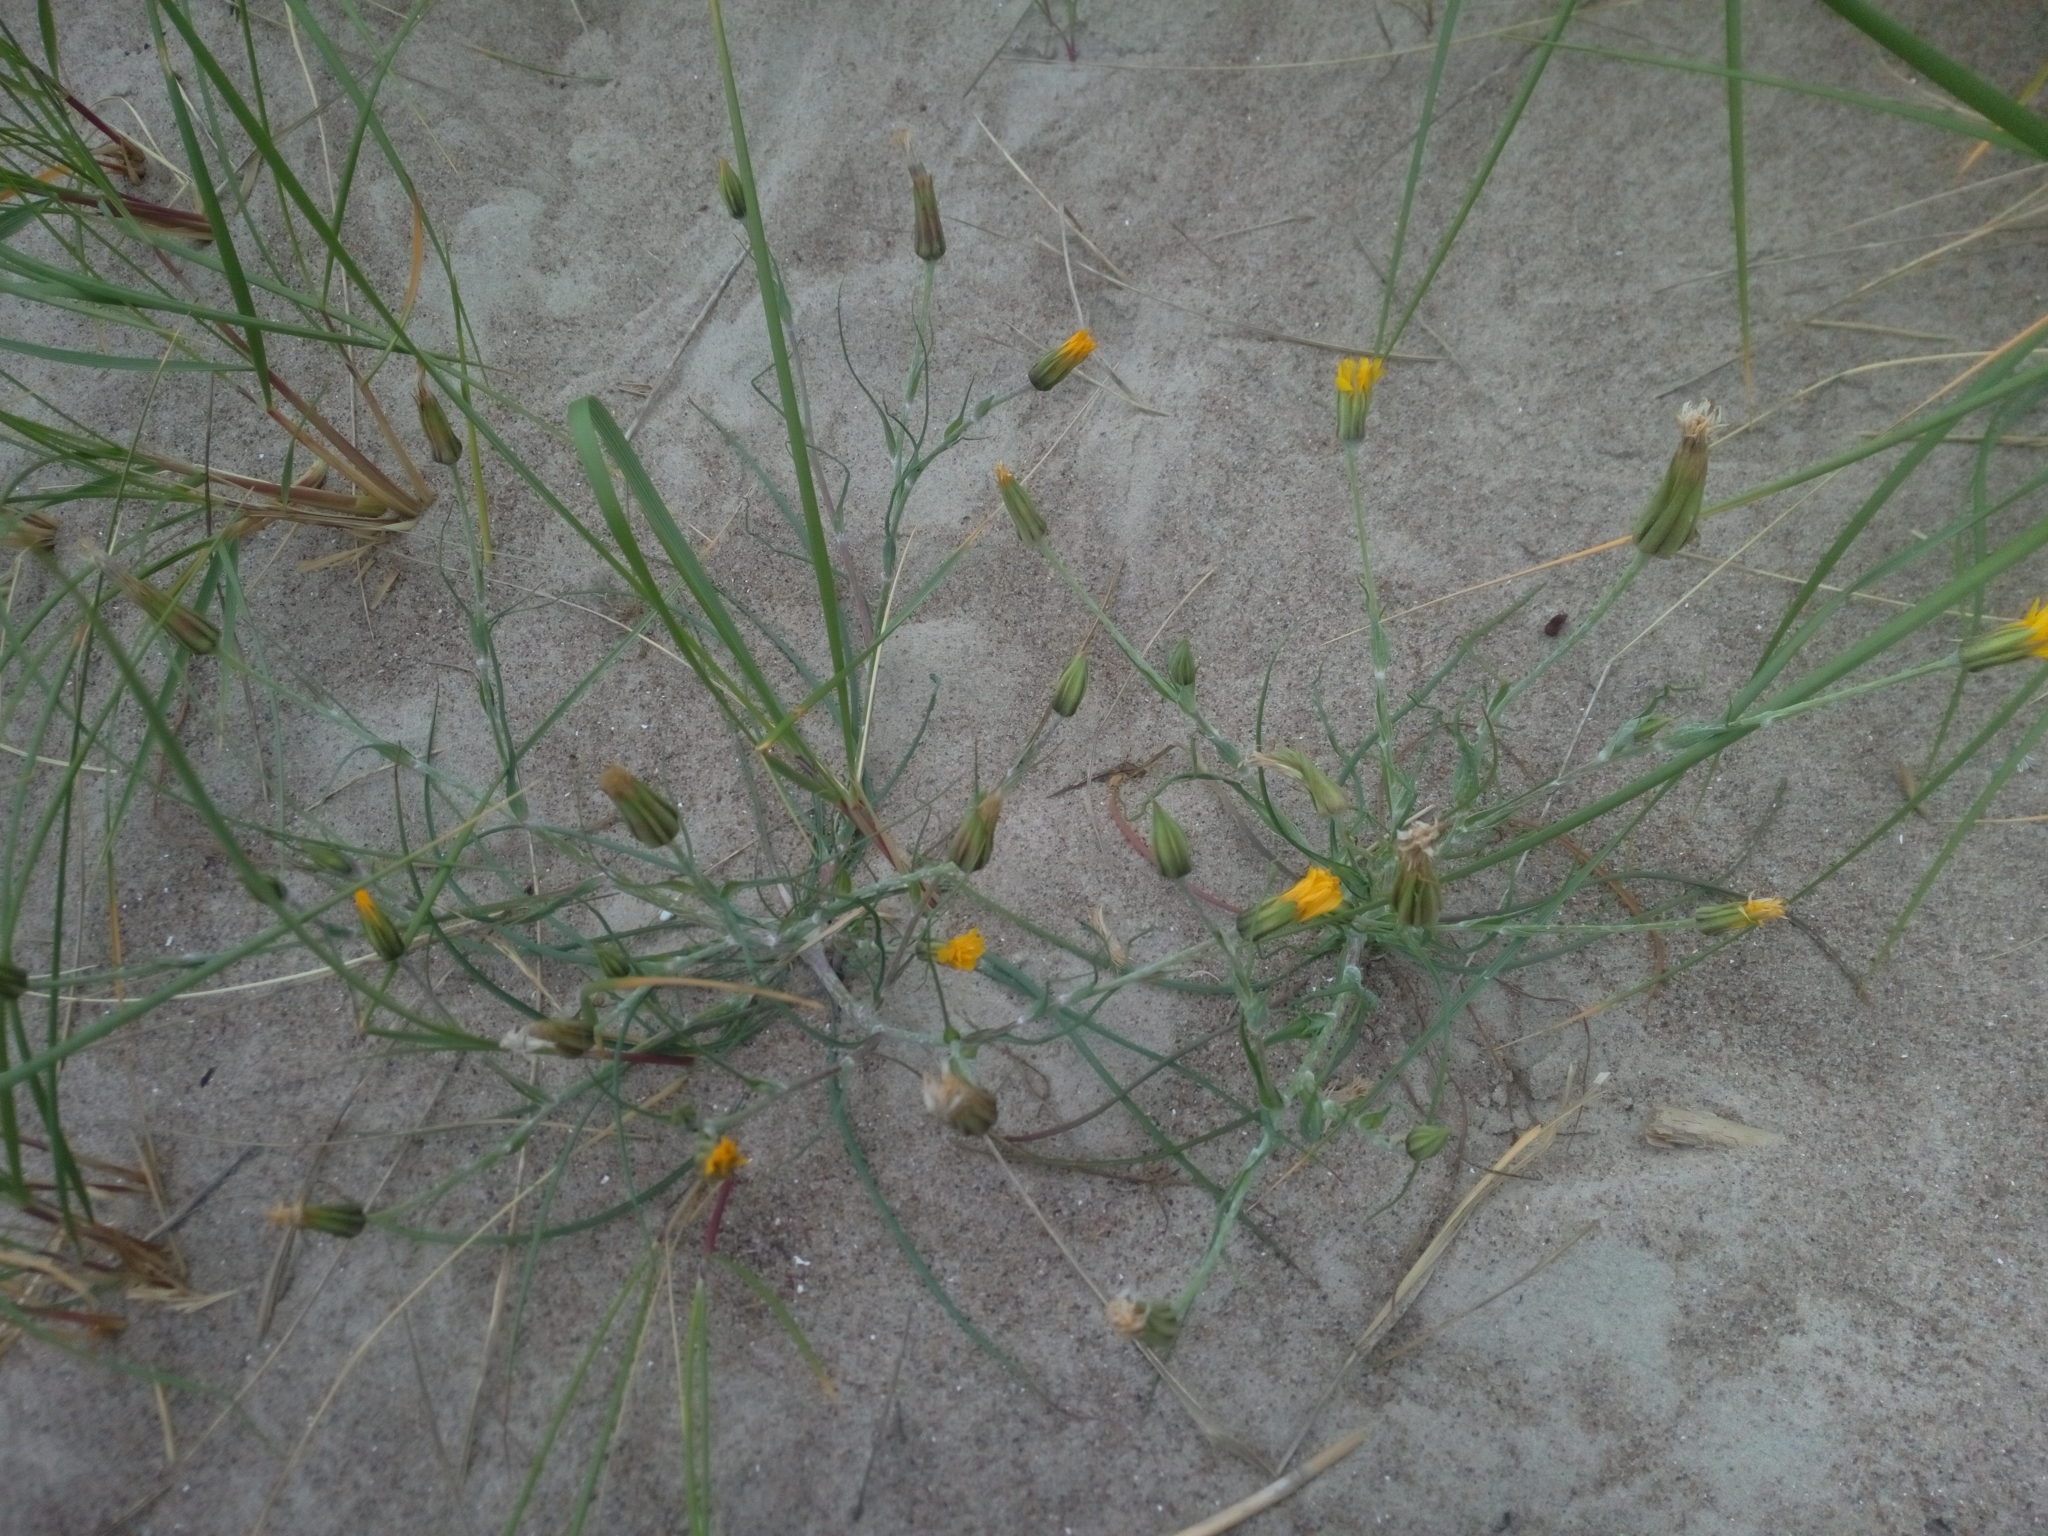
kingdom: Plantae
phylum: Tracheophyta
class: Magnoliopsida
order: Asterales
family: Asteraceae
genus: Tragopogon
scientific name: Tragopogon heterospermus
